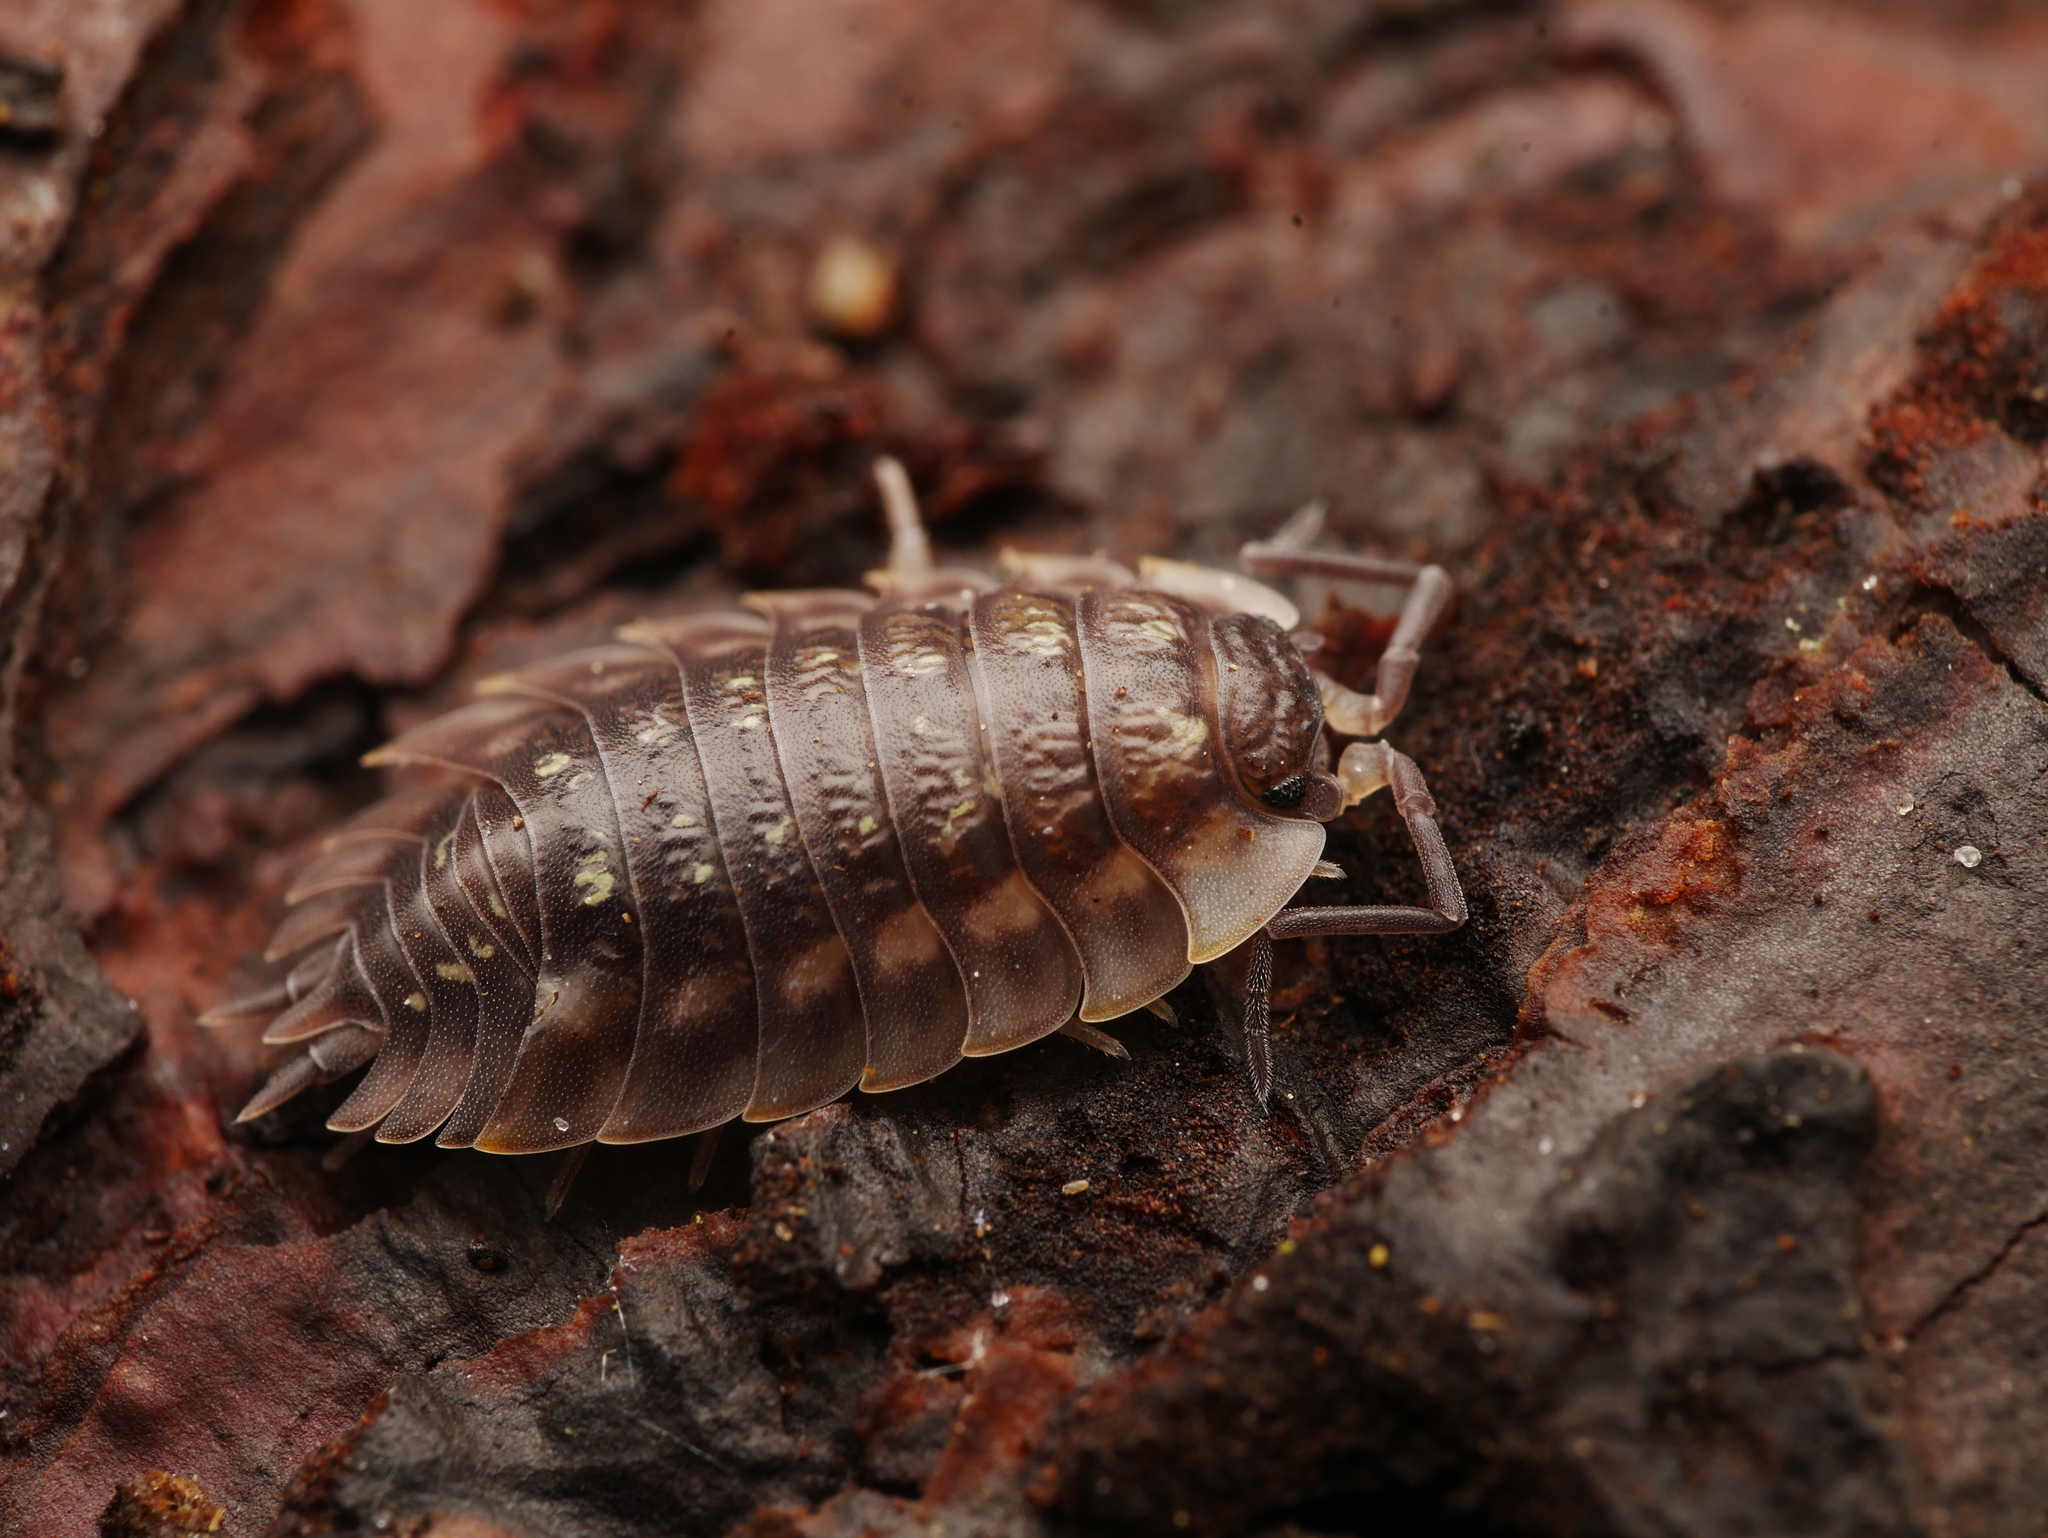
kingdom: Animalia
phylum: Arthropoda
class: Malacostraca
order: Isopoda
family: Oniscidae
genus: Oniscus
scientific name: Oniscus asellus
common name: Common shiny woodlouse
